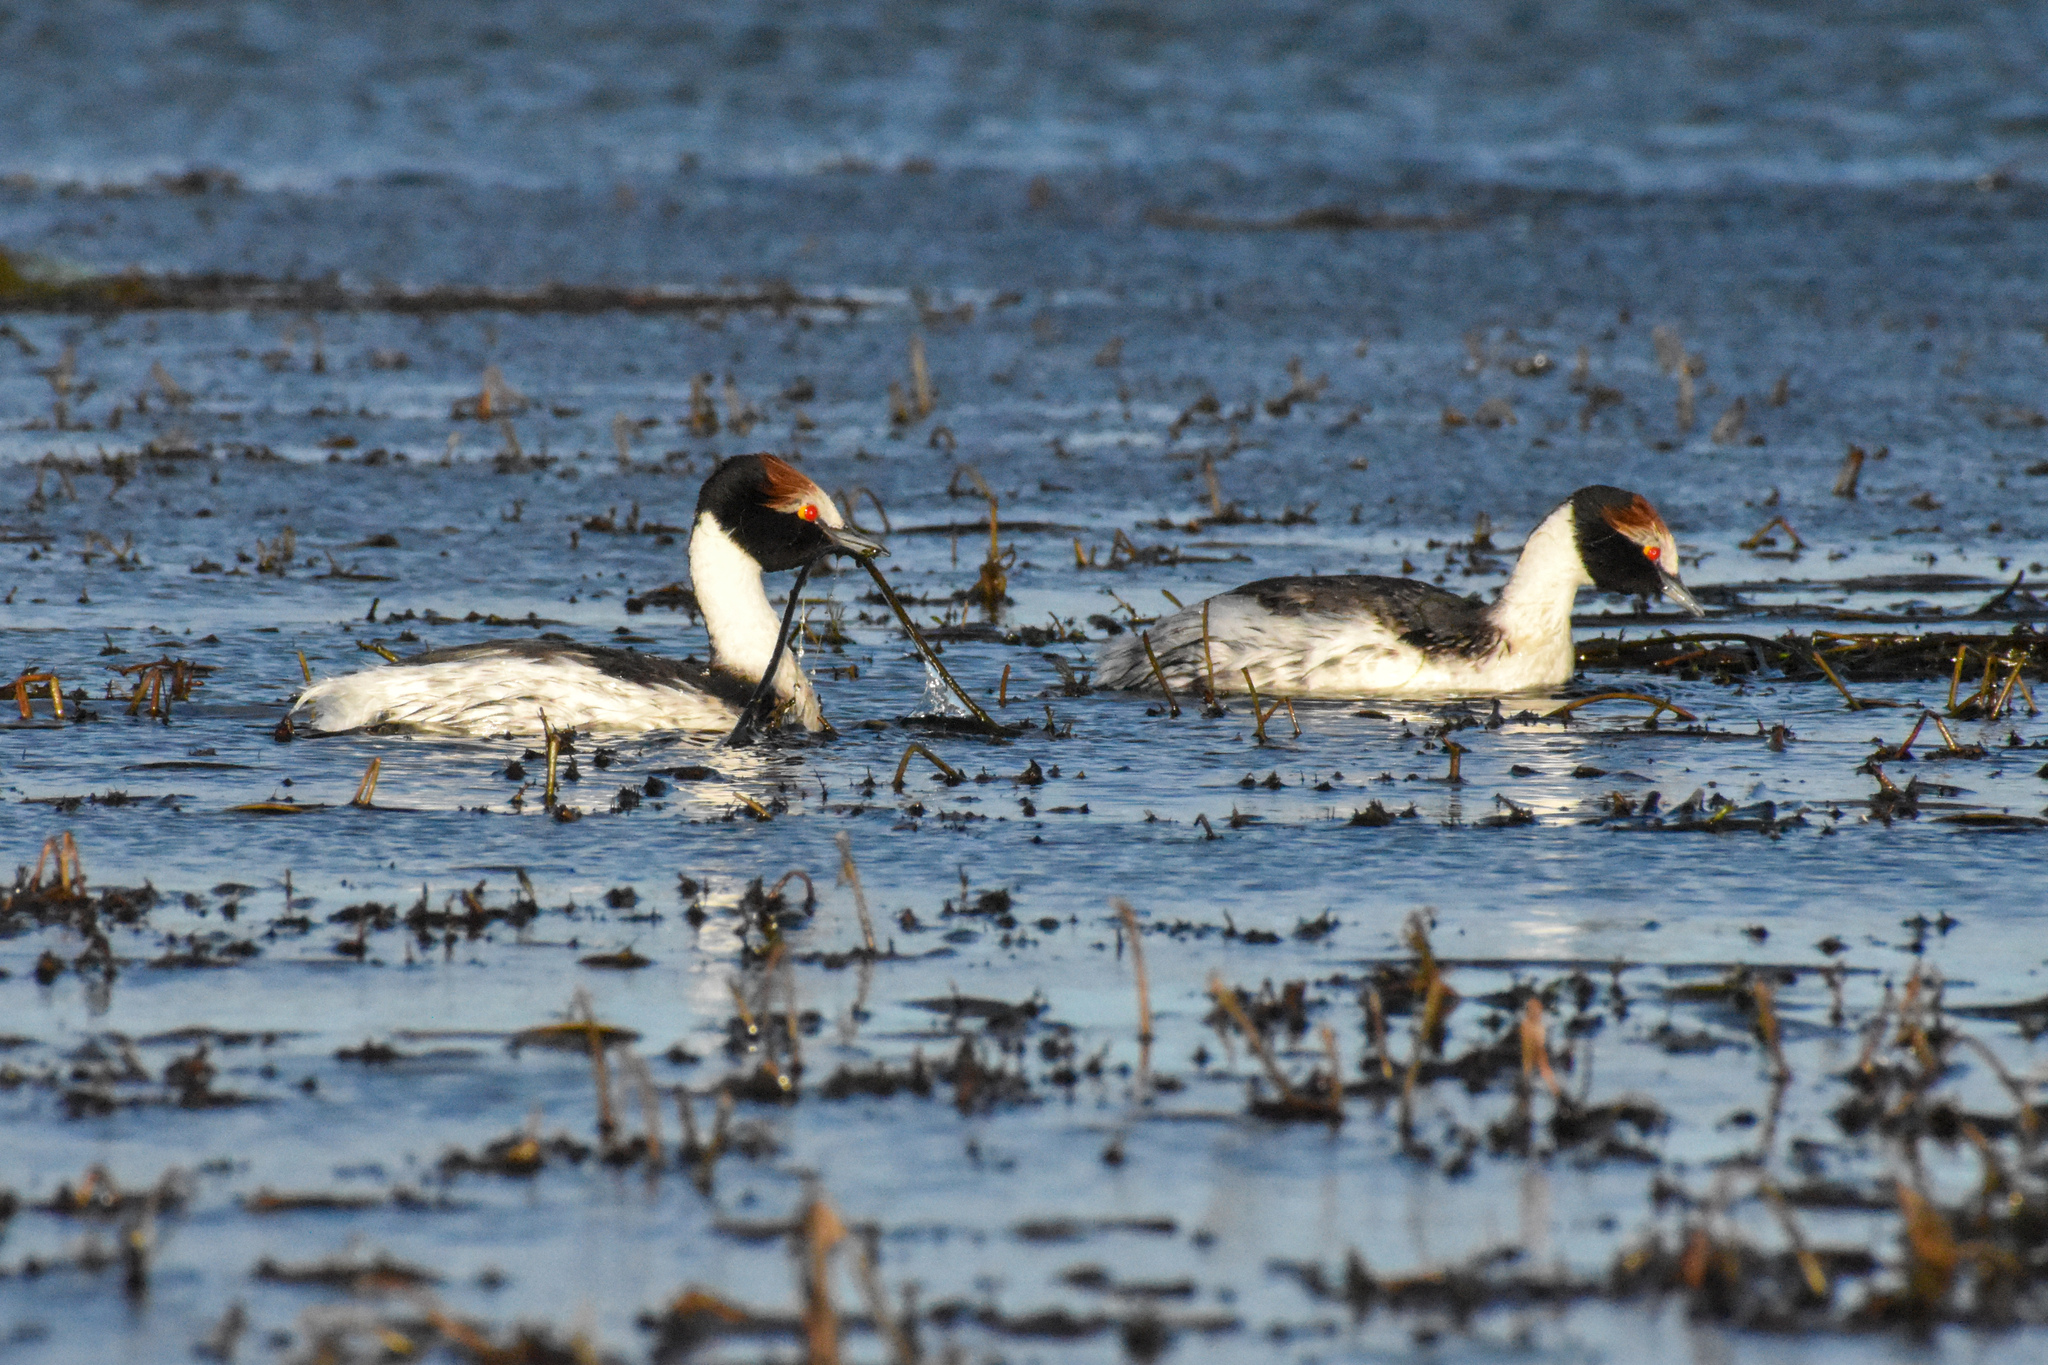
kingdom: Animalia
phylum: Chordata
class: Aves
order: Podicipediformes
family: Podicipedidae
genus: Podiceps
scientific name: Podiceps gallardoi
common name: Hooded grebe
